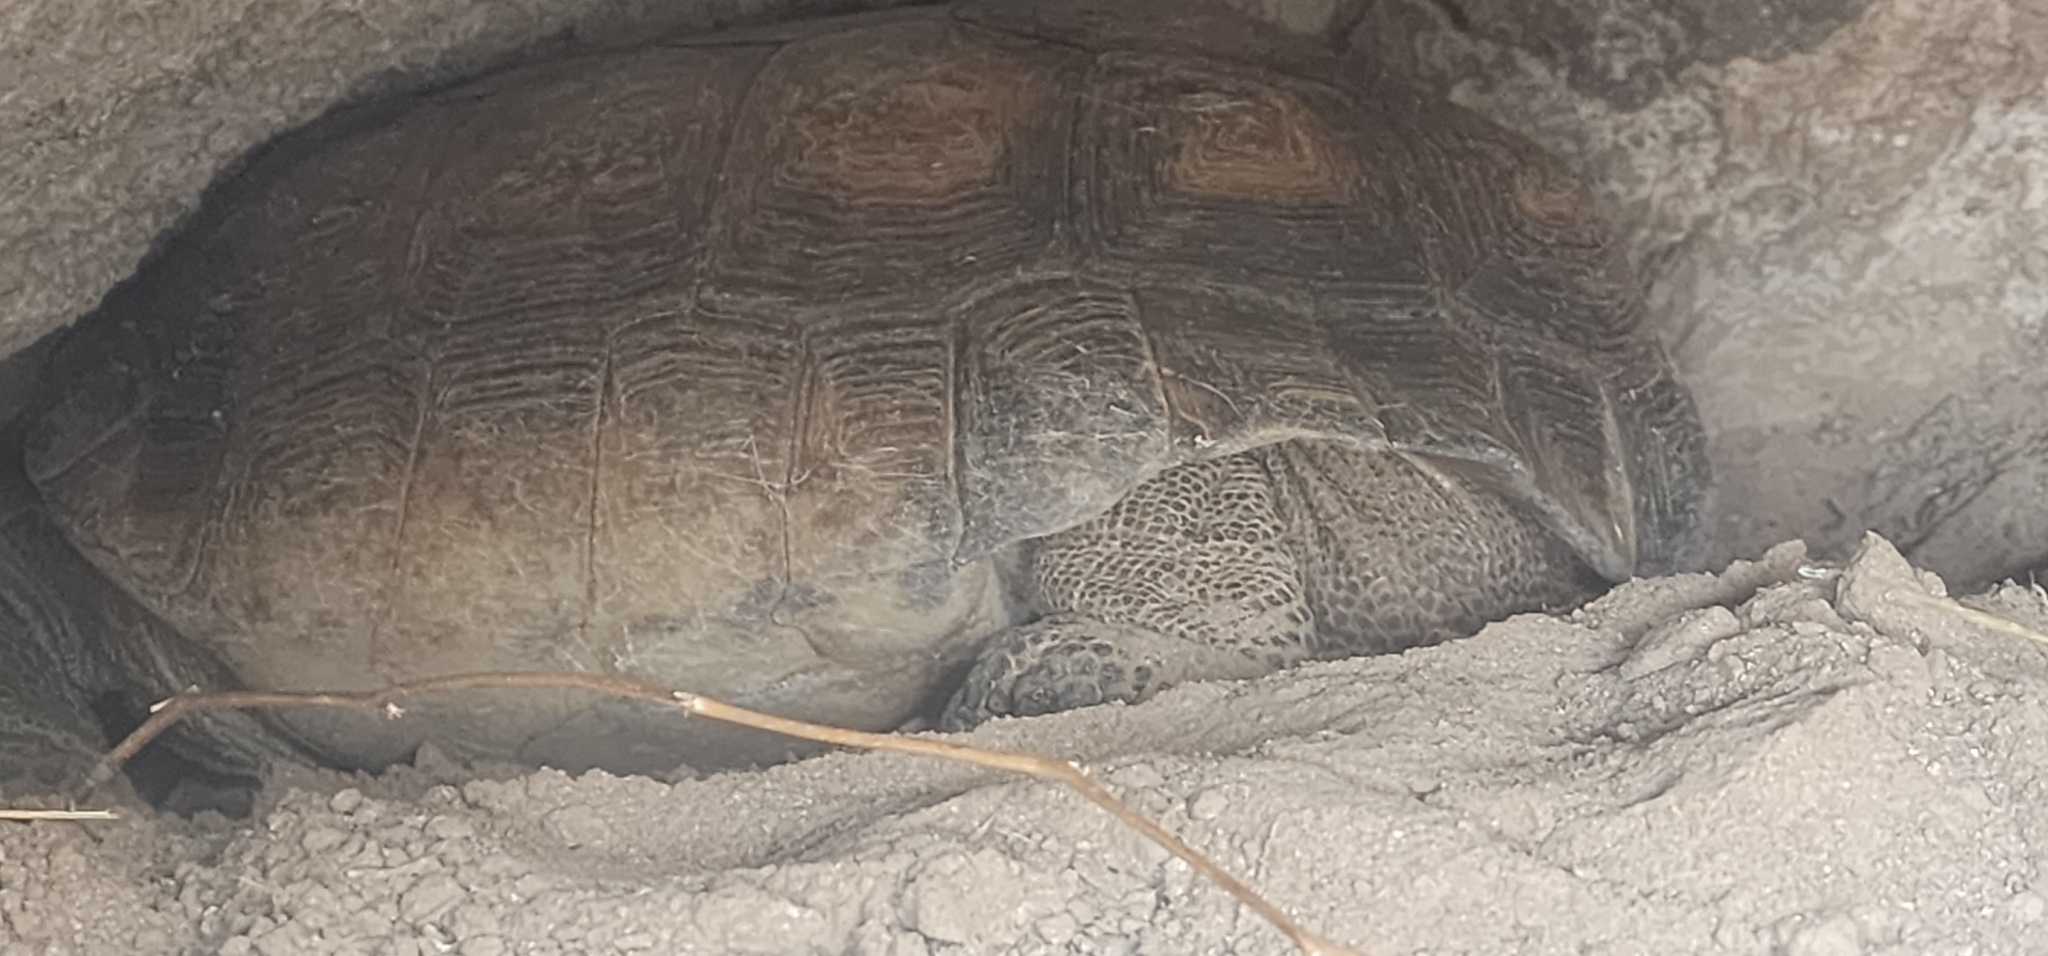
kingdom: Animalia
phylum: Chordata
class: Testudines
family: Testudinidae
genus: Gopherus
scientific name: Gopherus morafkai
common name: Sonoran desert tortoise
